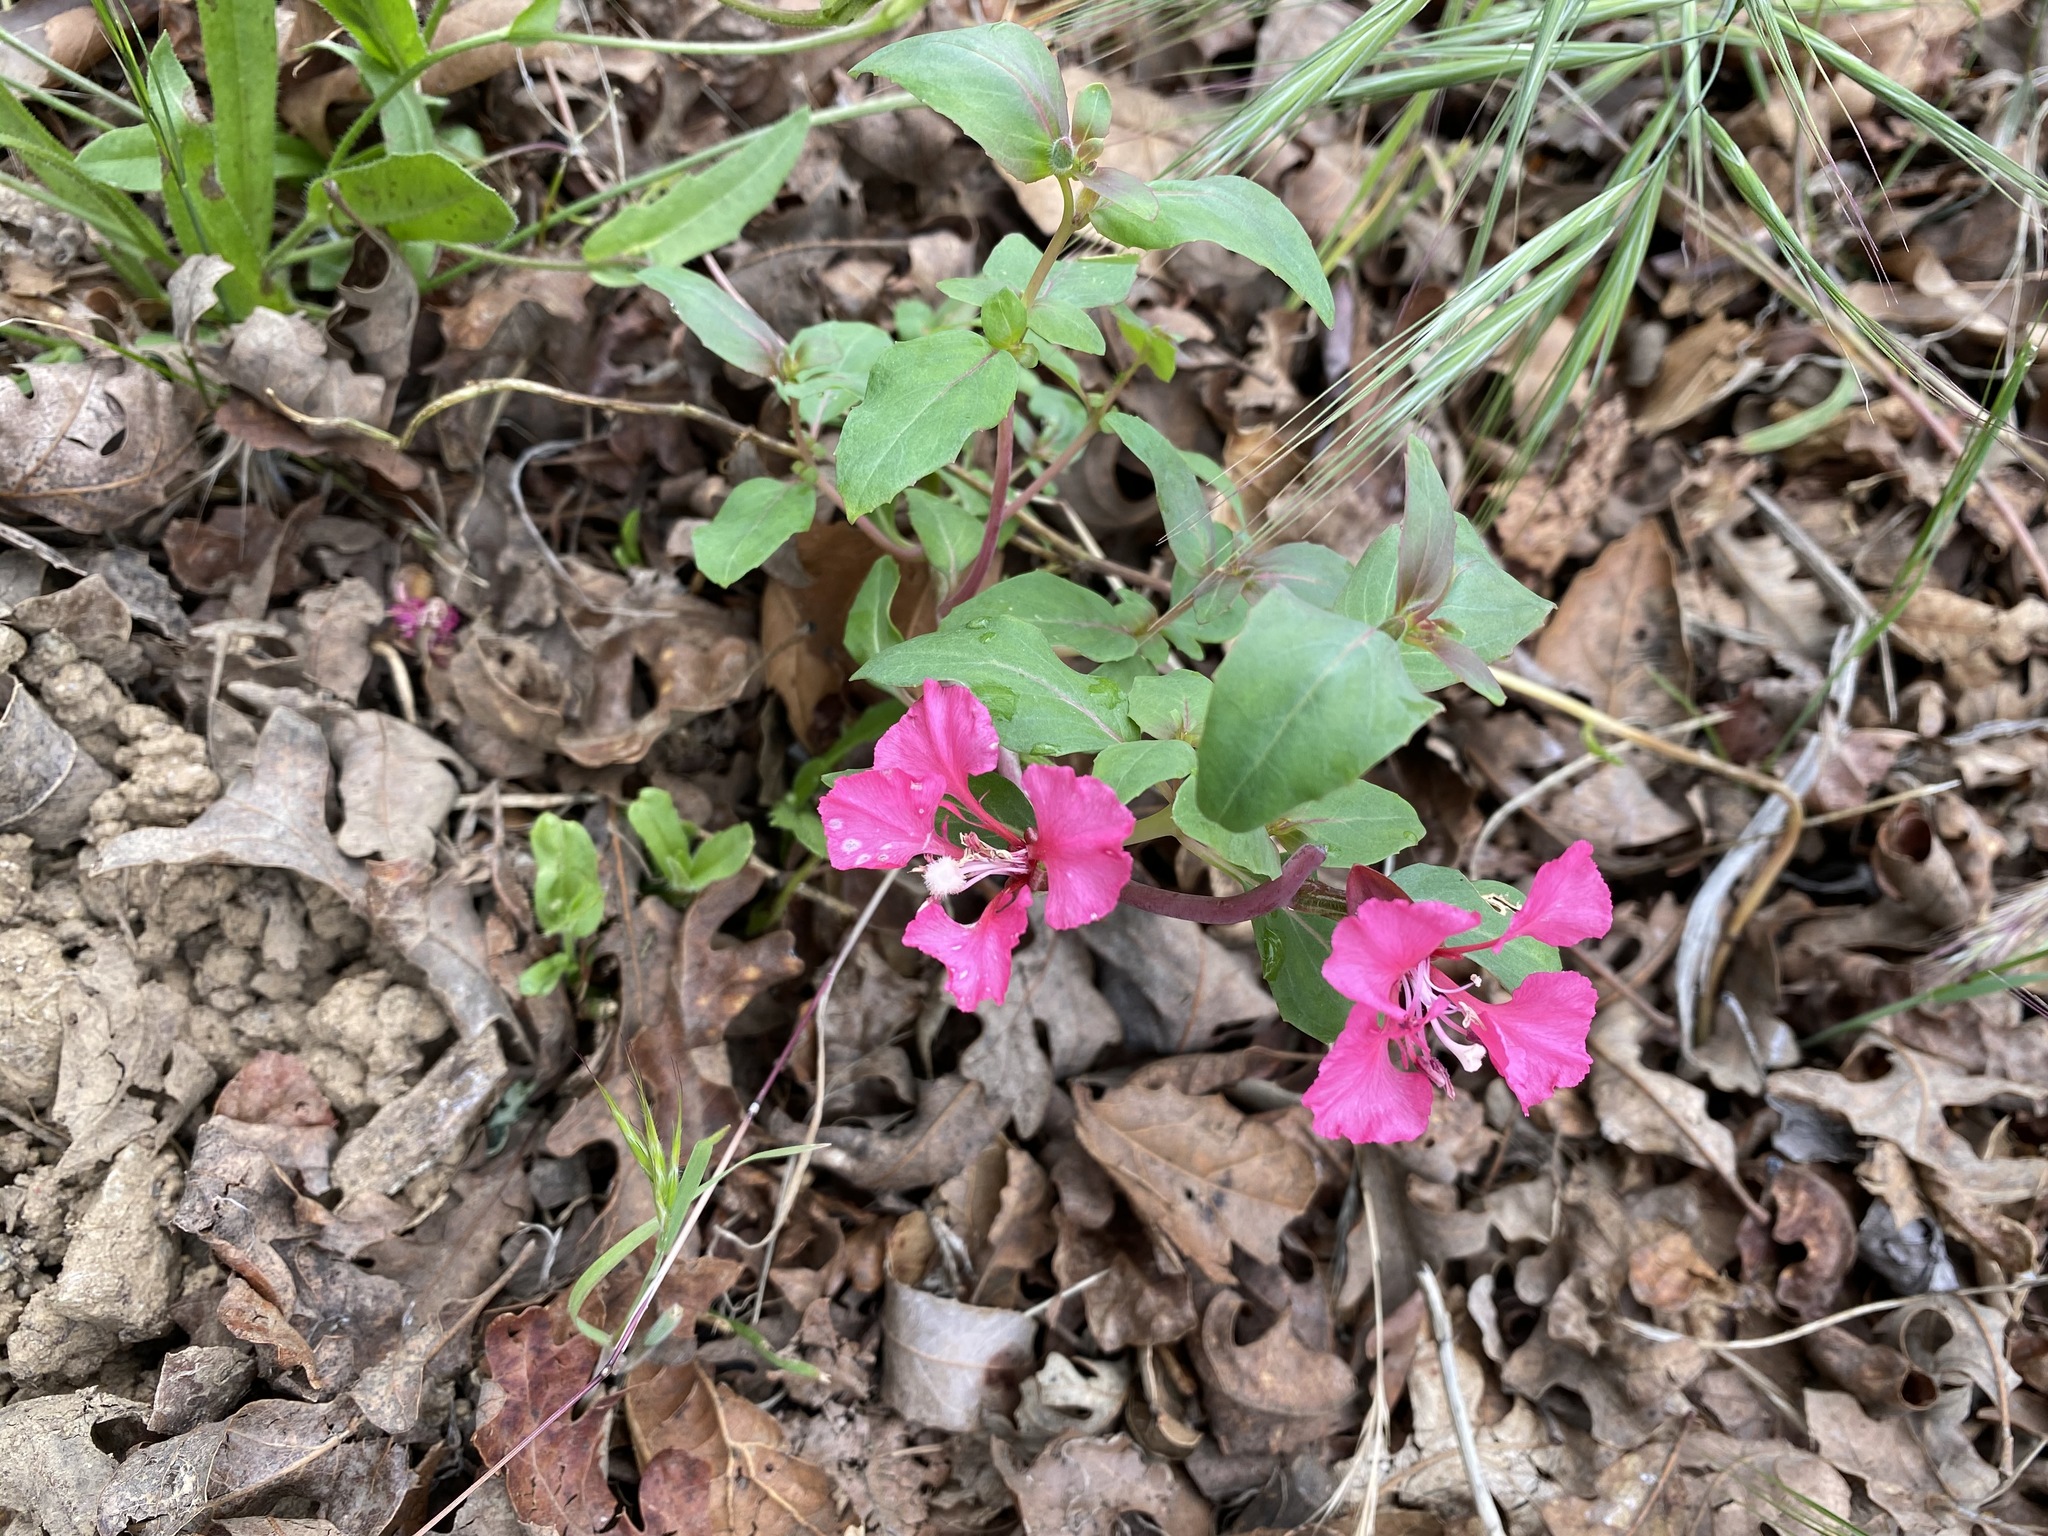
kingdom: Plantae
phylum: Tracheophyta
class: Magnoliopsida
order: Myrtales
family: Onagraceae
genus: Clarkia
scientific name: Clarkia unguiculata
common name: Clarkia
